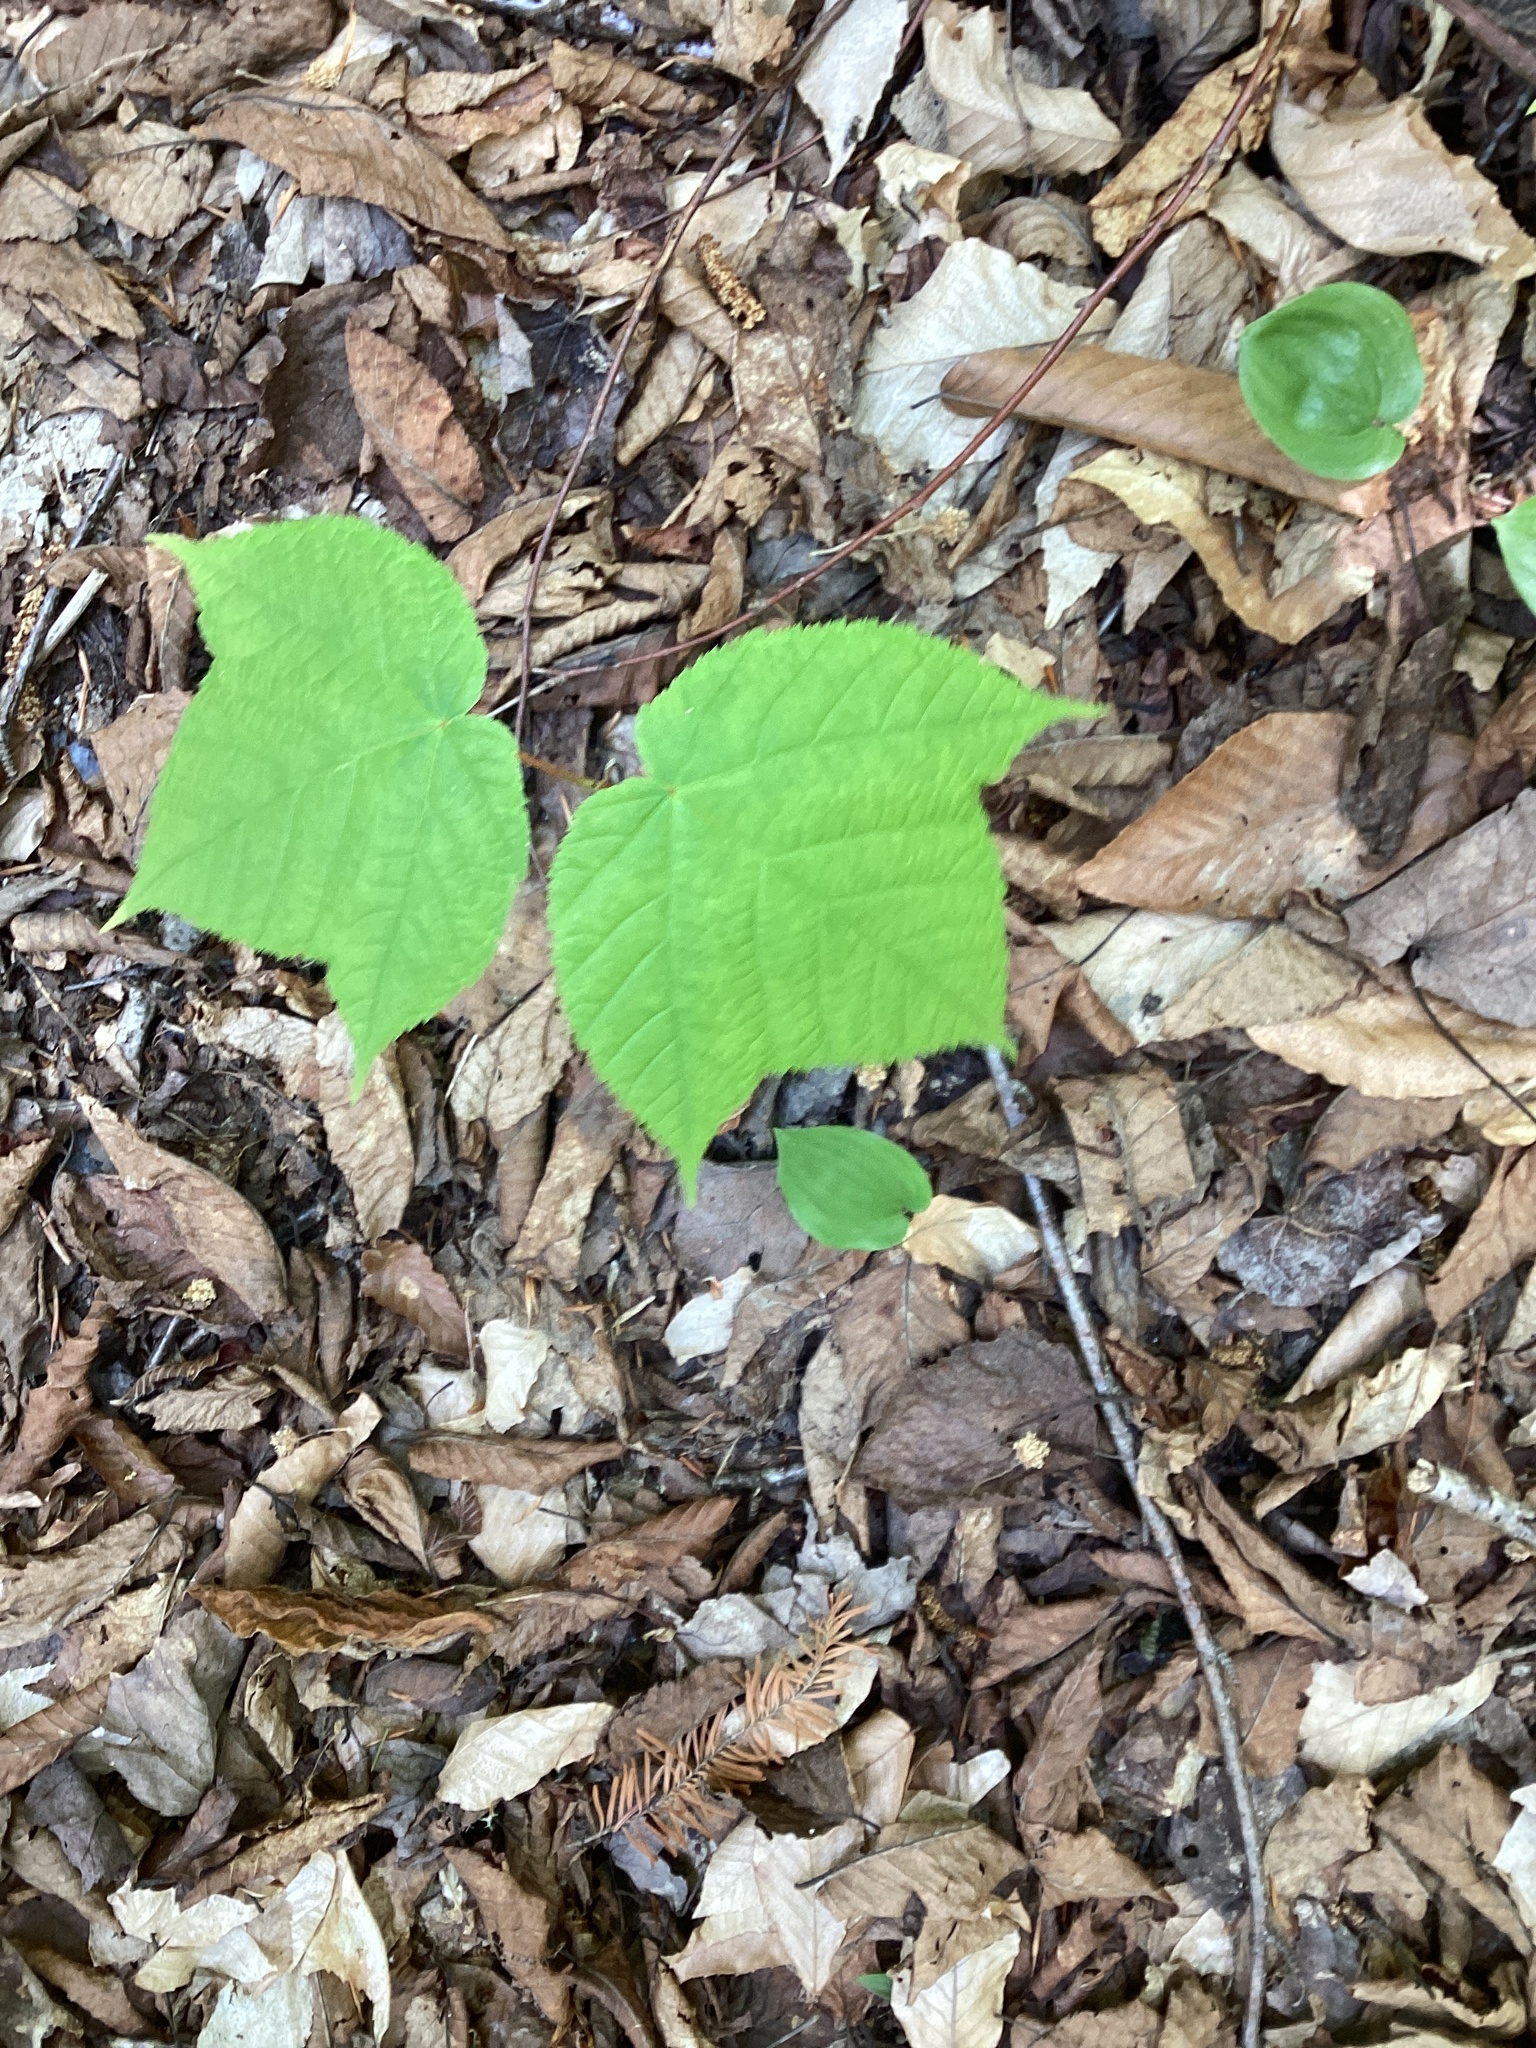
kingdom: Plantae
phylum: Tracheophyta
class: Magnoliopsida
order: Sapindales
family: Sapindaceae
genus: Acer
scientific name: Acer pensylvanicum
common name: Moosewood
